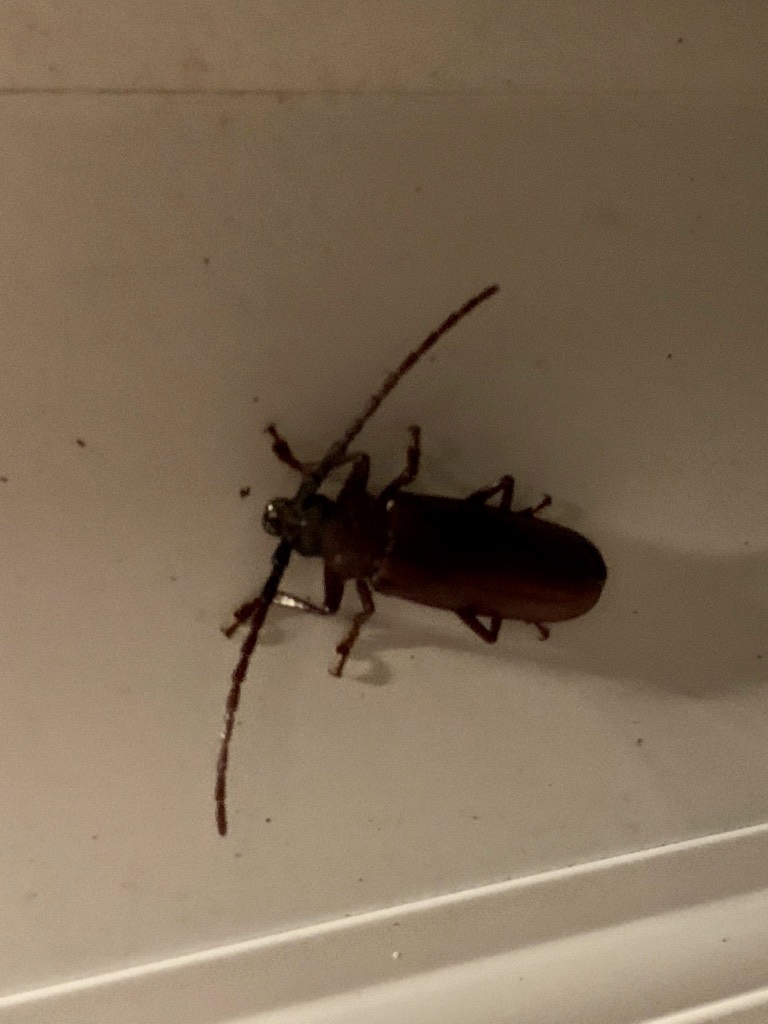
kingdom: Animalia
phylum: Arthropoda
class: Insecta
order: Coleoptera
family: Cerambycidae
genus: Orthosoma
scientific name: Orthosoma brunneum
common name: Brown prionid beetle
